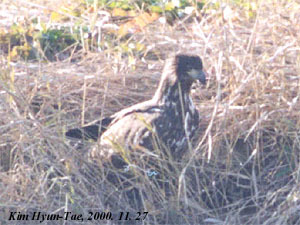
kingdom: Animalia
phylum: Chordata
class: Aves
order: Accipitriformes
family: Accipitridae
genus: Haliaeetus
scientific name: Haliaeetus albicilla
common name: White-tailed eagle
